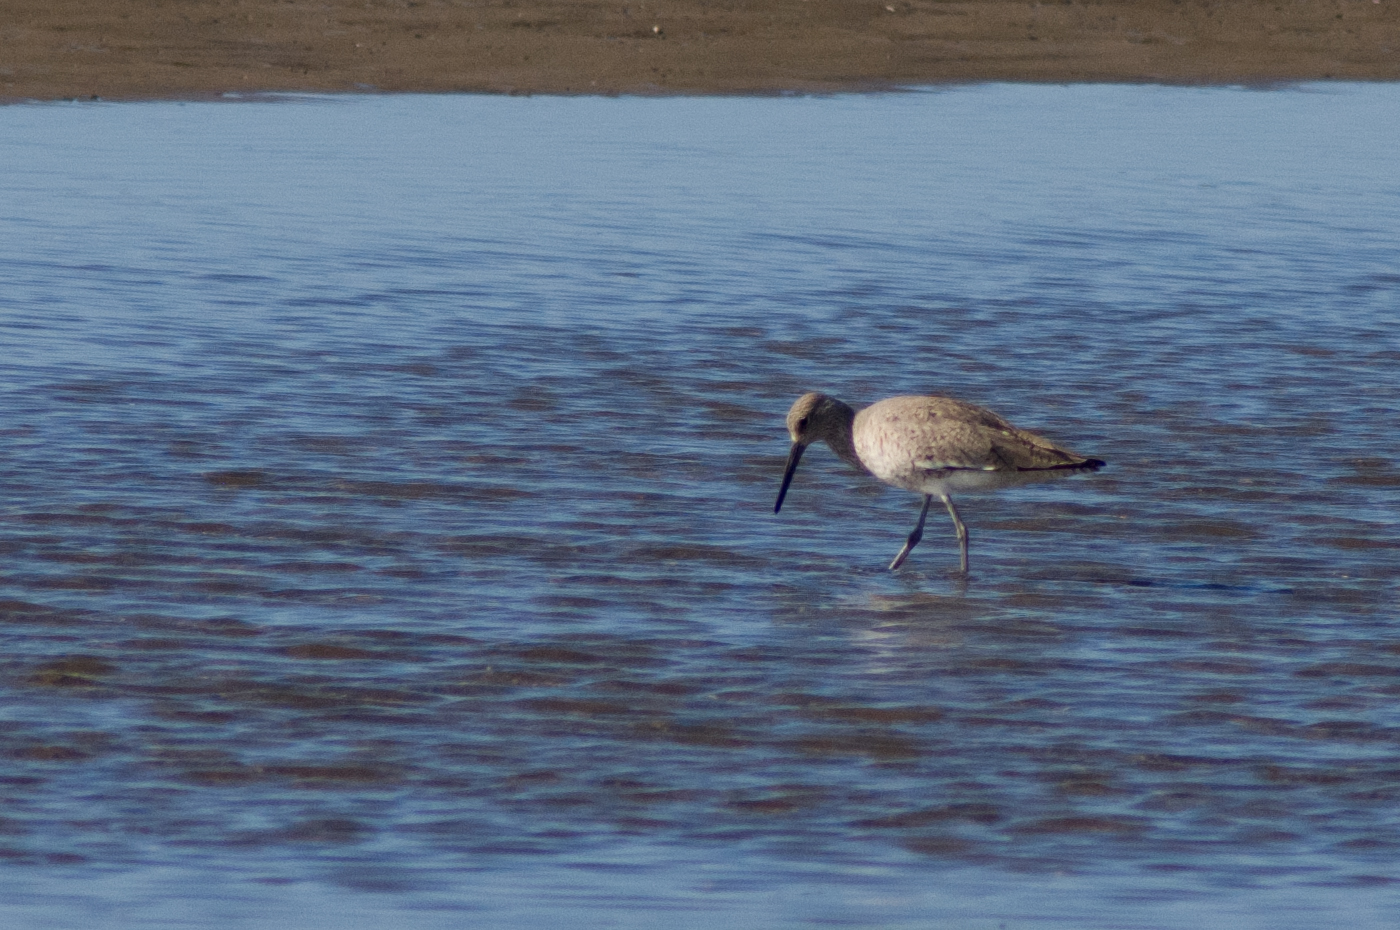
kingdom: Animalia
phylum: Chordata
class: Aves
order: Charadriiformes
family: Scolopacidae
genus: Tringa
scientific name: Tringa semipalmata
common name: Willet
